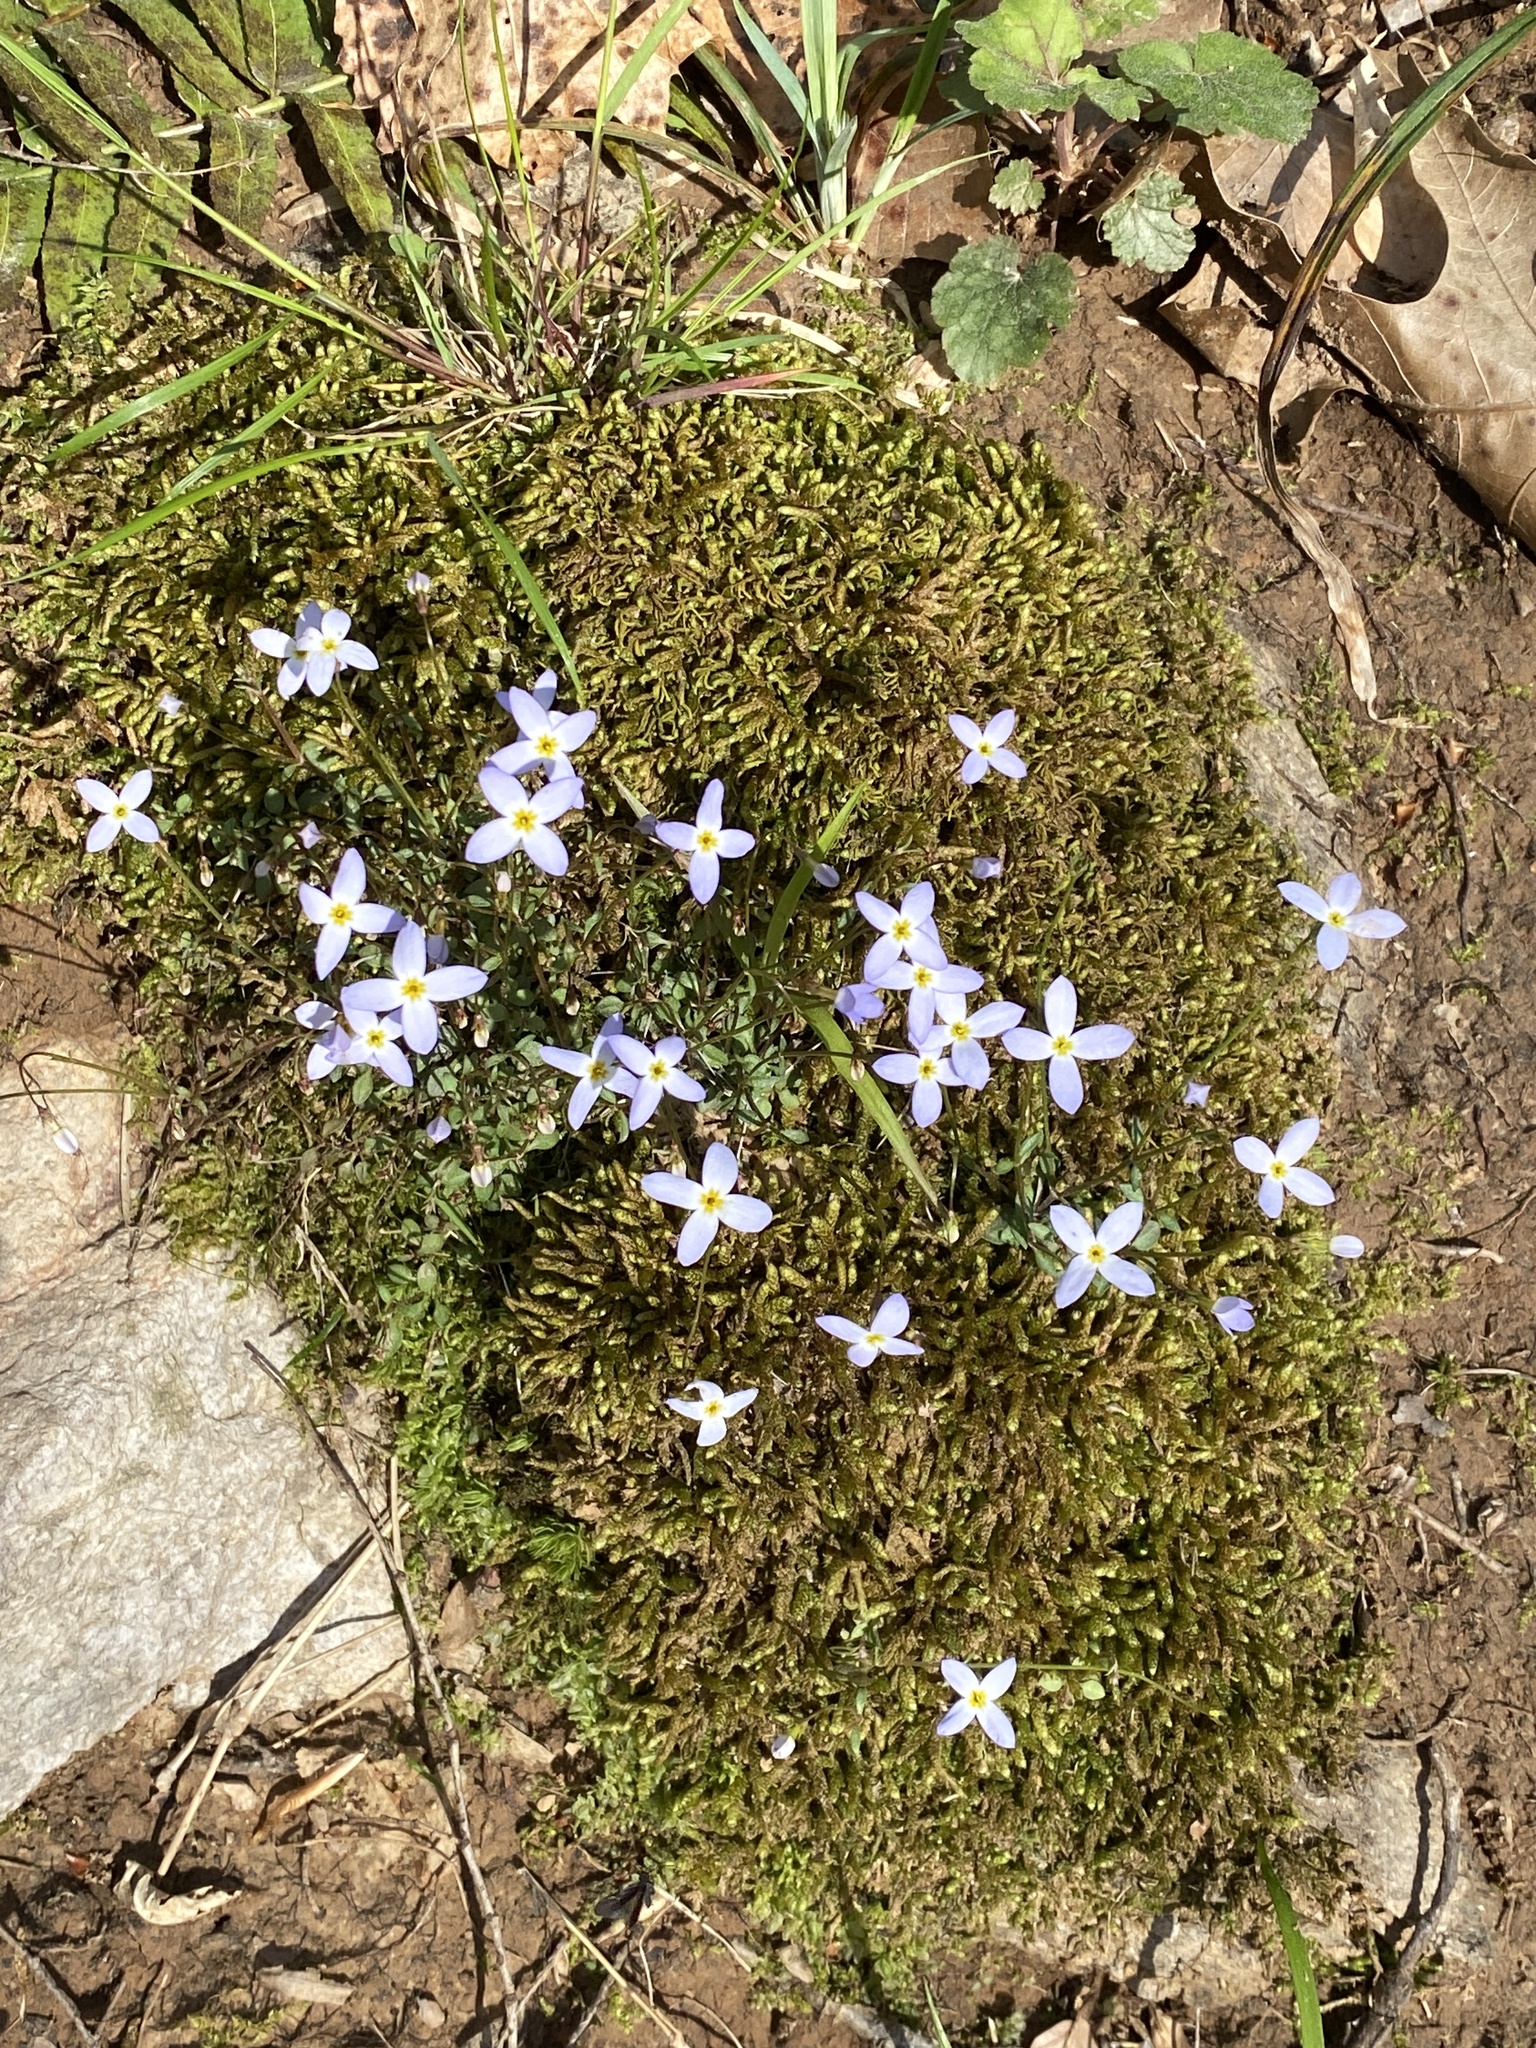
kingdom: Plantae
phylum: Tracheophyta
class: Magnoliopsida
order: Gentianales
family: Rubiaceae
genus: Houstonia
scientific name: Houstonia caerulea
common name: Bluets
